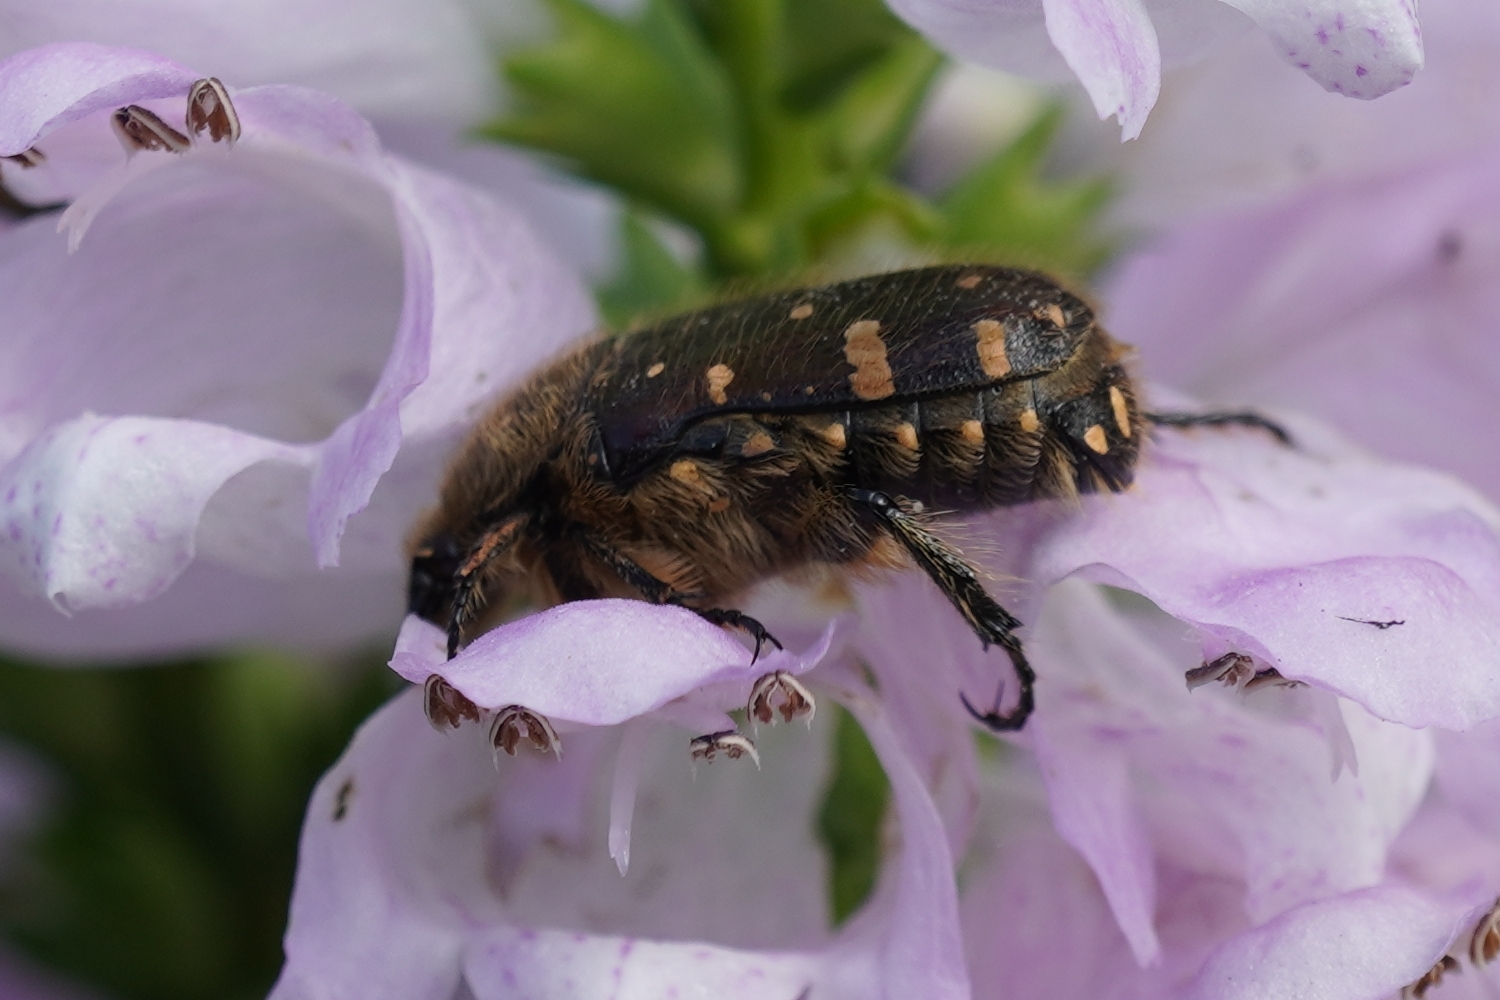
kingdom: Animalia
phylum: Arthropoda
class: Insecta
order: Coleoptera
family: Scarabaeidae
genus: Gametis
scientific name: Gametis jucunda
